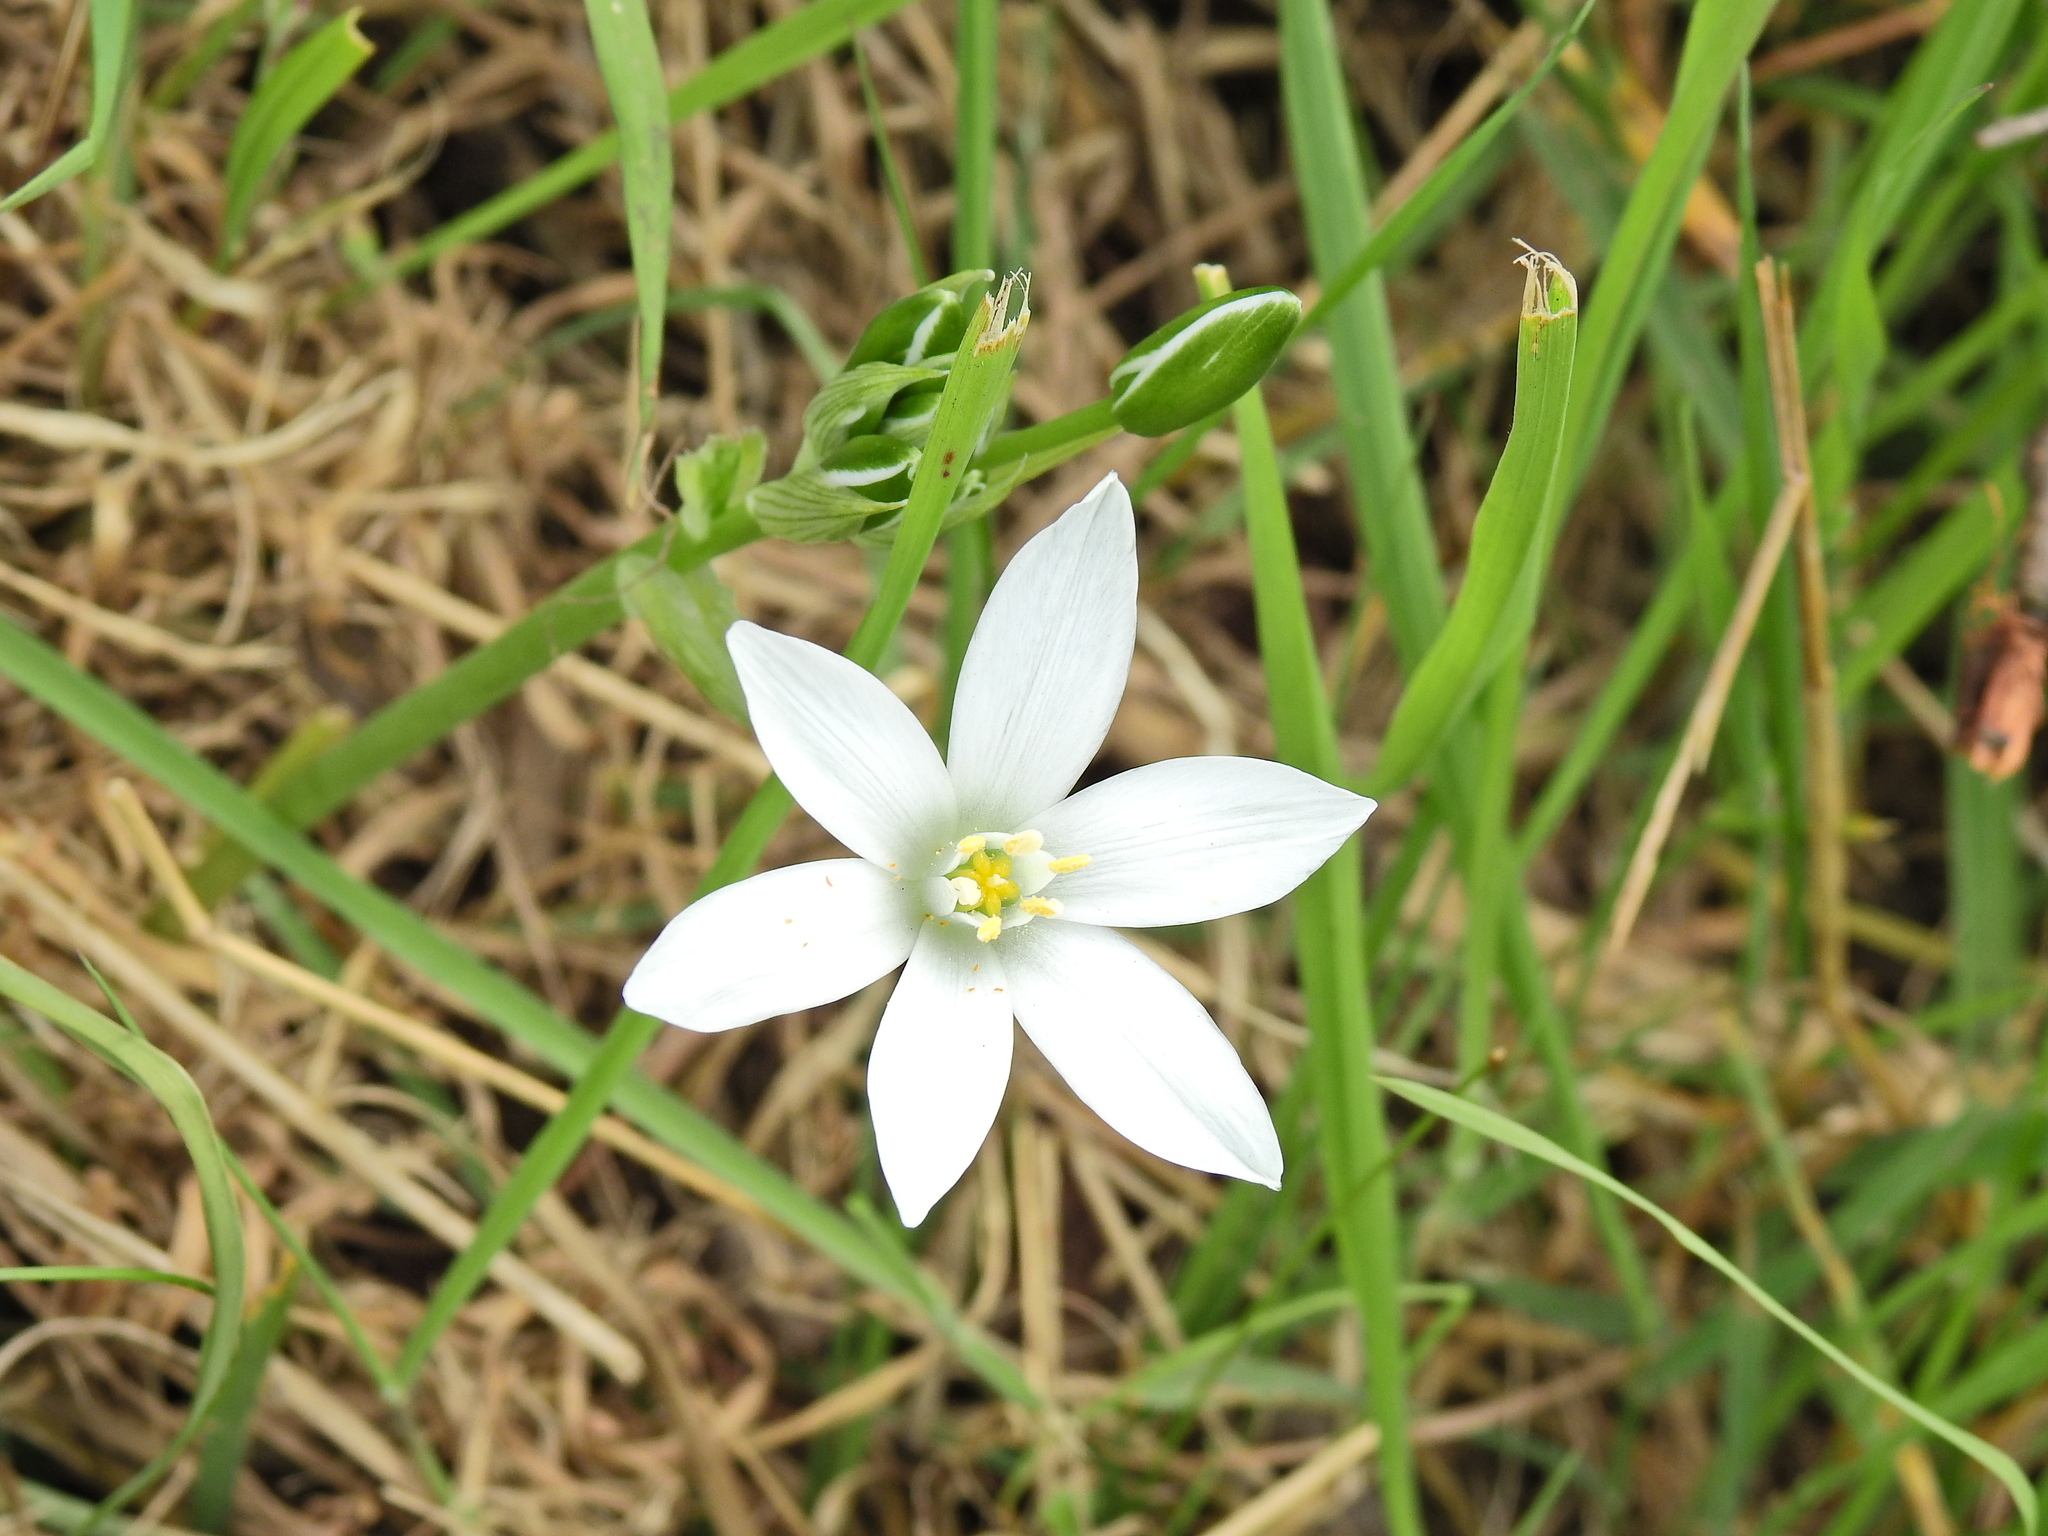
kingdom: Plantae
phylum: Tracheophyta
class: Liliopsida
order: Asparagales
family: Asparagaceae
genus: Ornithogalum
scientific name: Ornithogalum umbellatum
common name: Garden star-of-bethlehem
